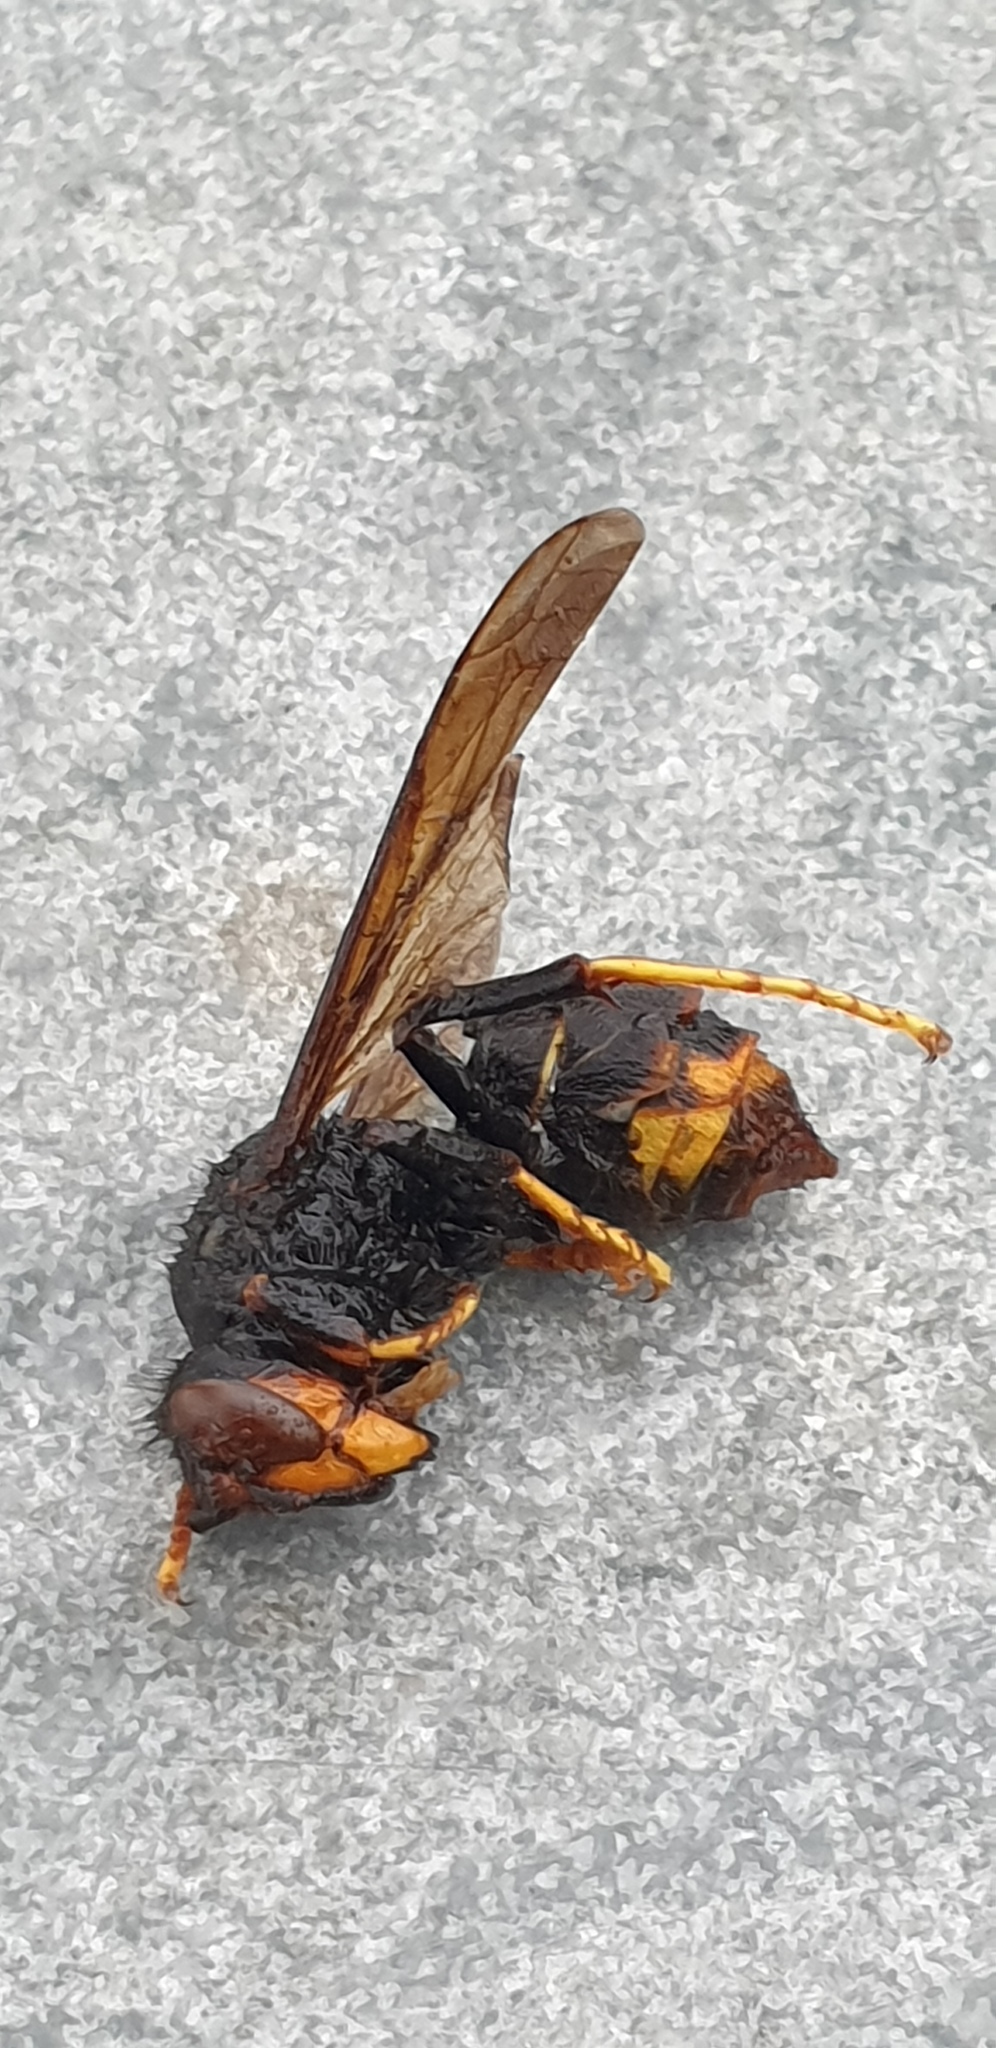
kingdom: Animalia
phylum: Arthropoda
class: Insecta
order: Hymenoptera
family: Vespidae
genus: Vespa
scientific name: Vespa velutina
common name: Asian hornet
